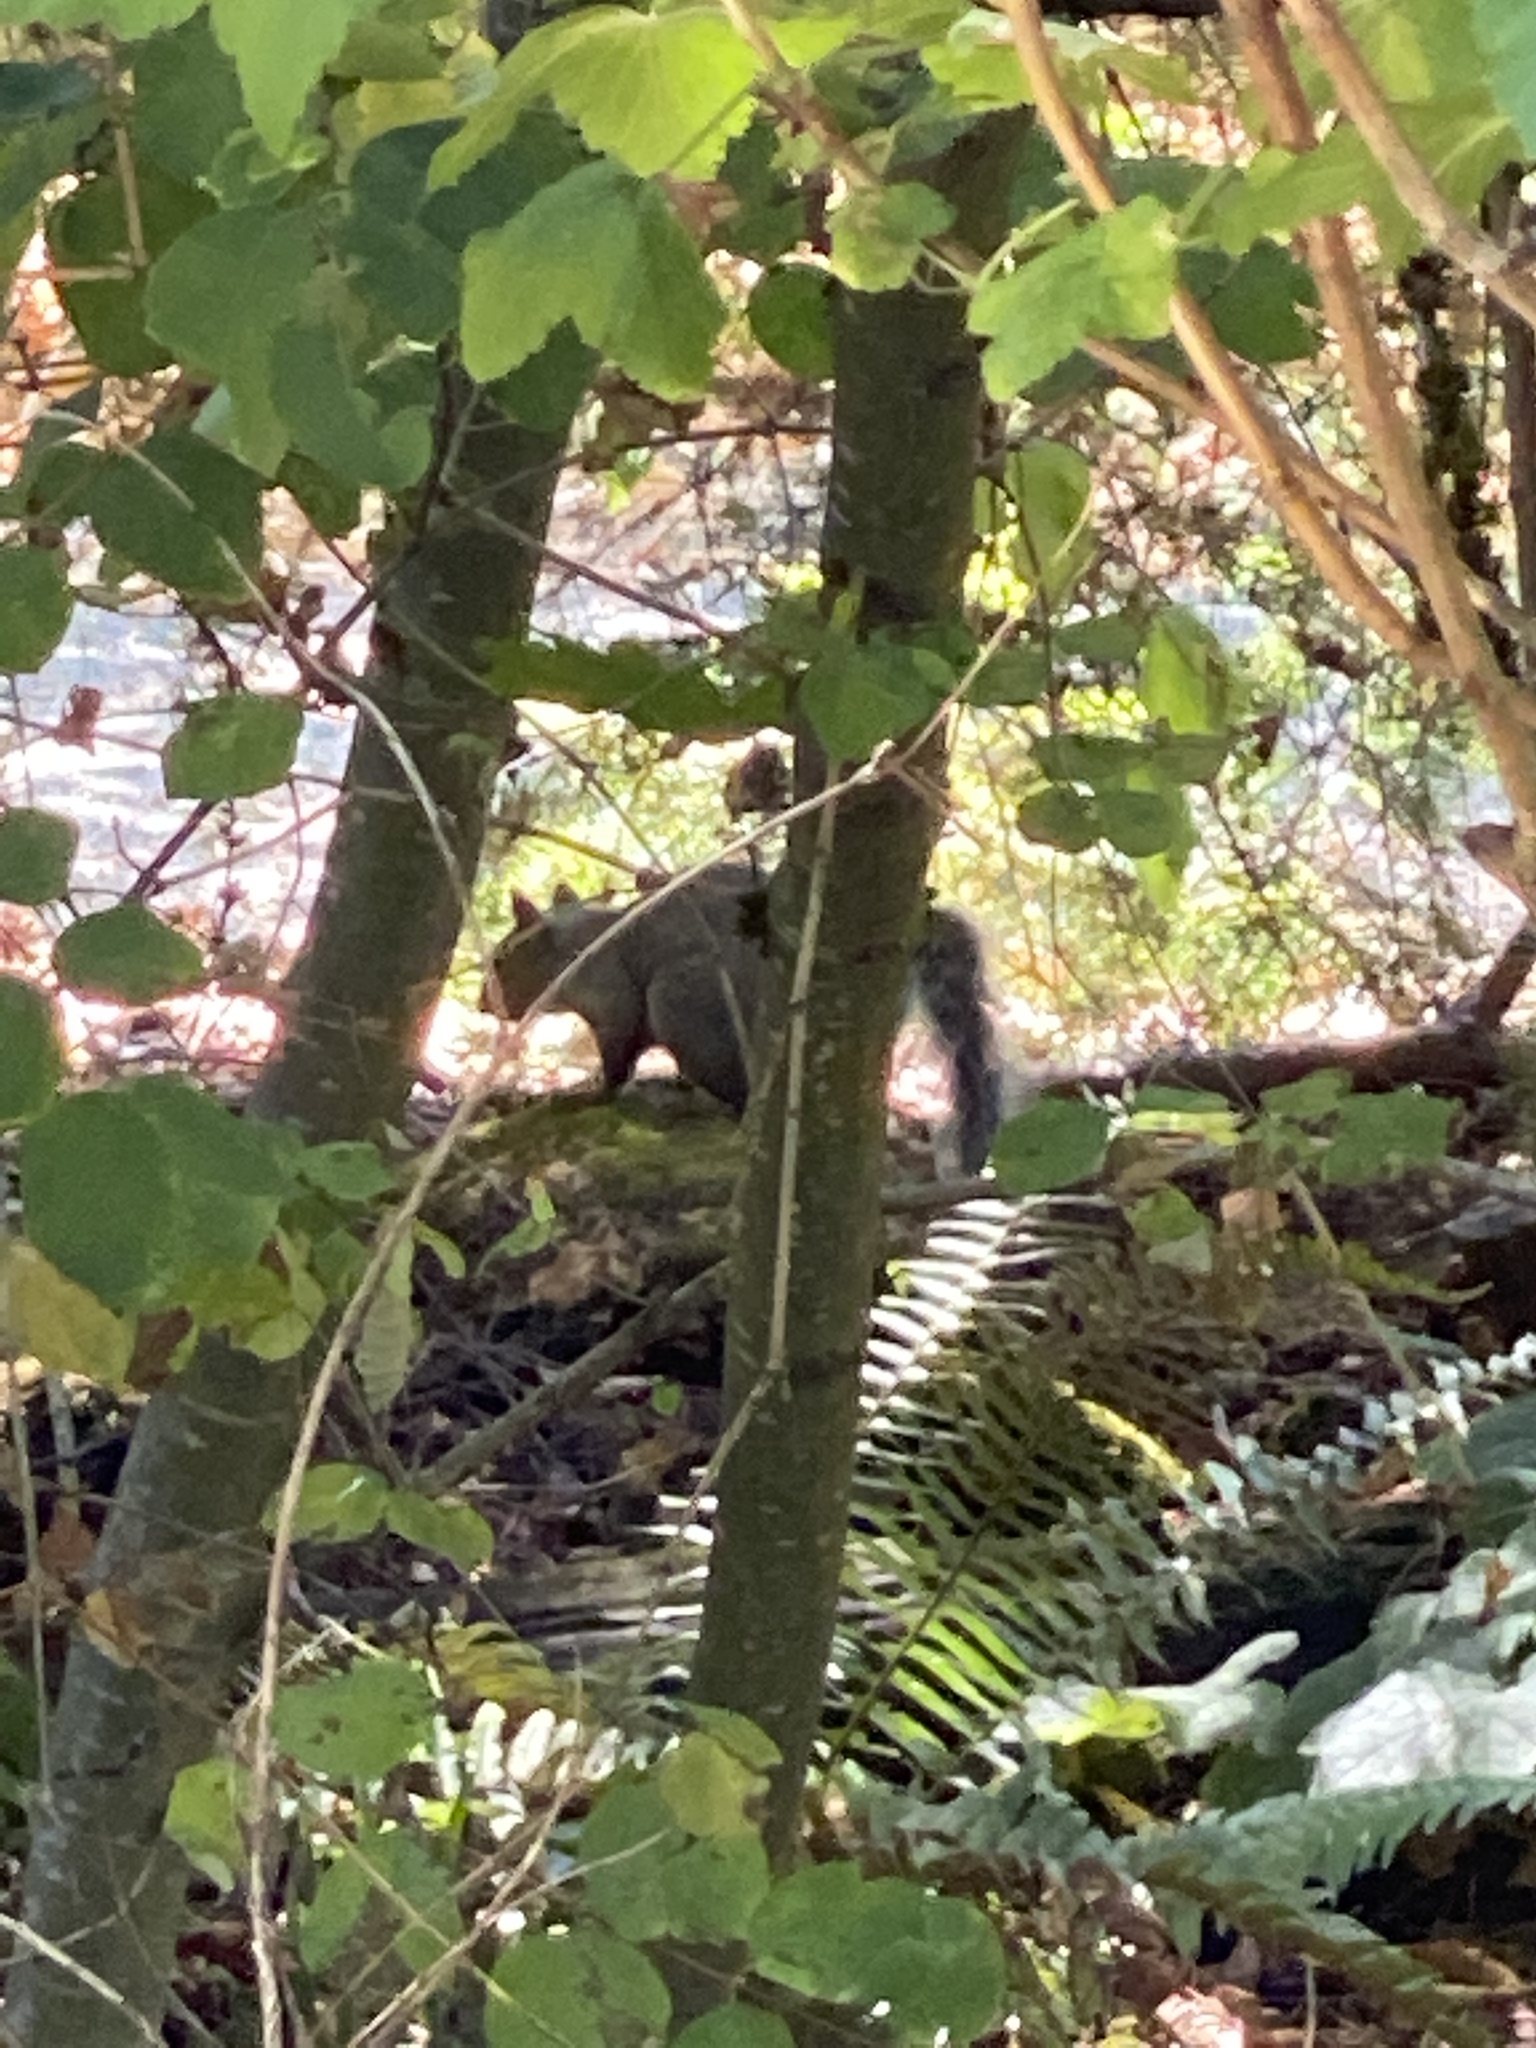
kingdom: Animalia
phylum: Chordata
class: Mammalia
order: Rodentia
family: Sciuridae
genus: Sciurus
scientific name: Sciurus carolinensis
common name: Eastern gray squirrel
